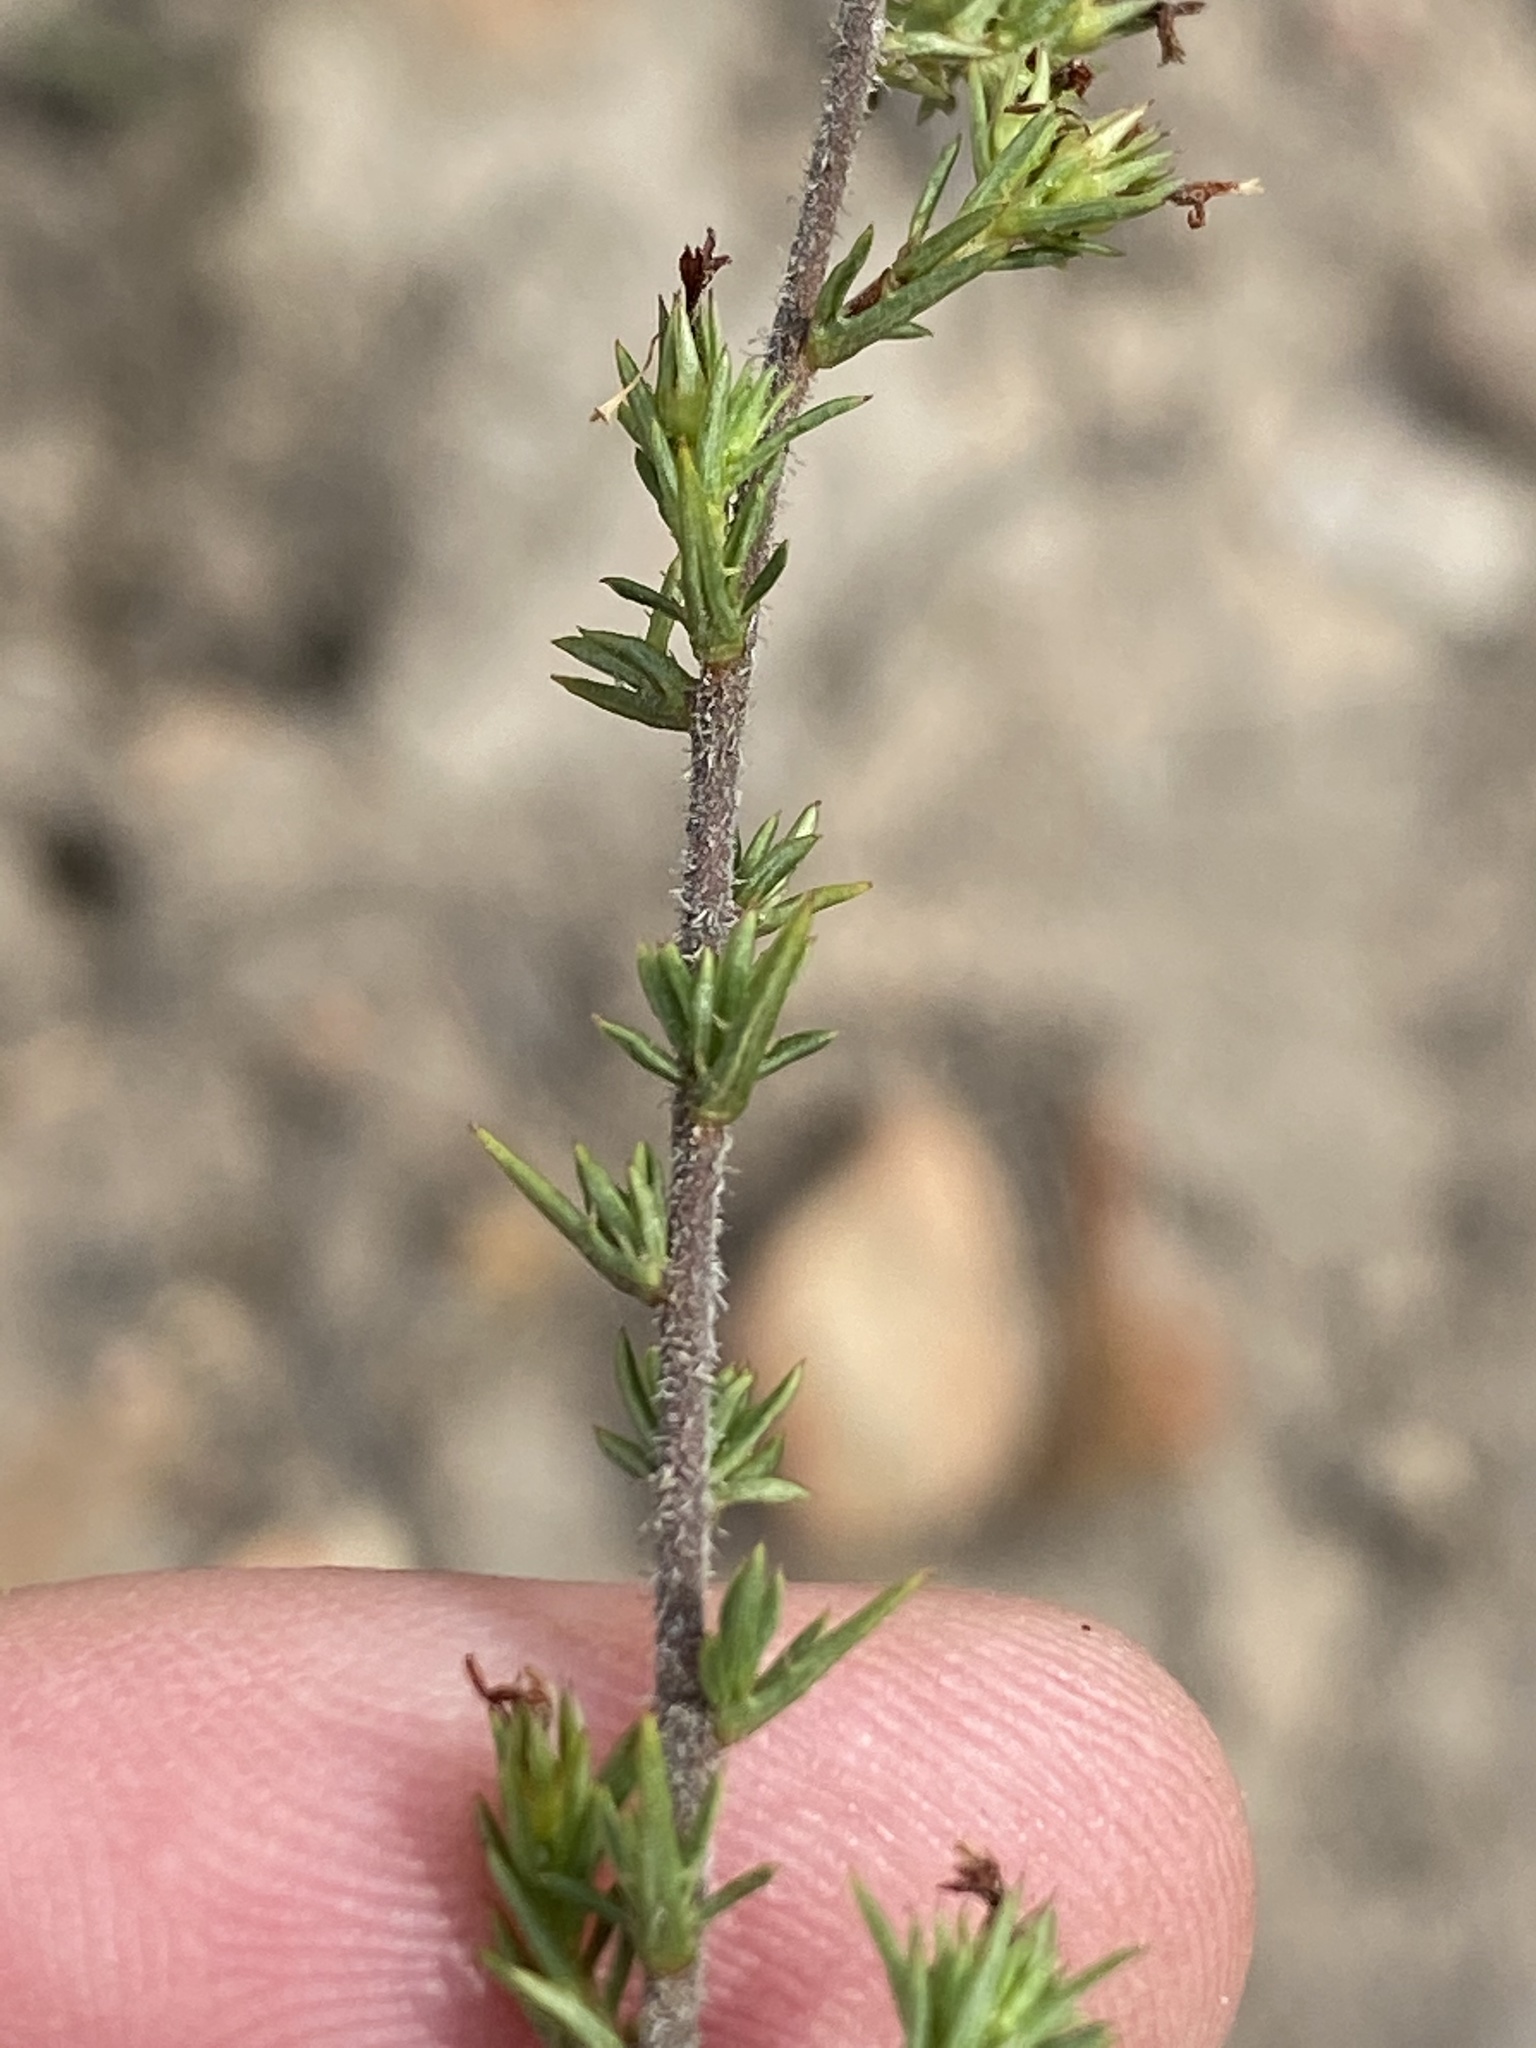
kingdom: Plantae
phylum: Tracheophyta
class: Magnoliopsida
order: Asterales
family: Campanulaceae
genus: Wahlenbergia
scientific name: Wahlenbergia rubens
